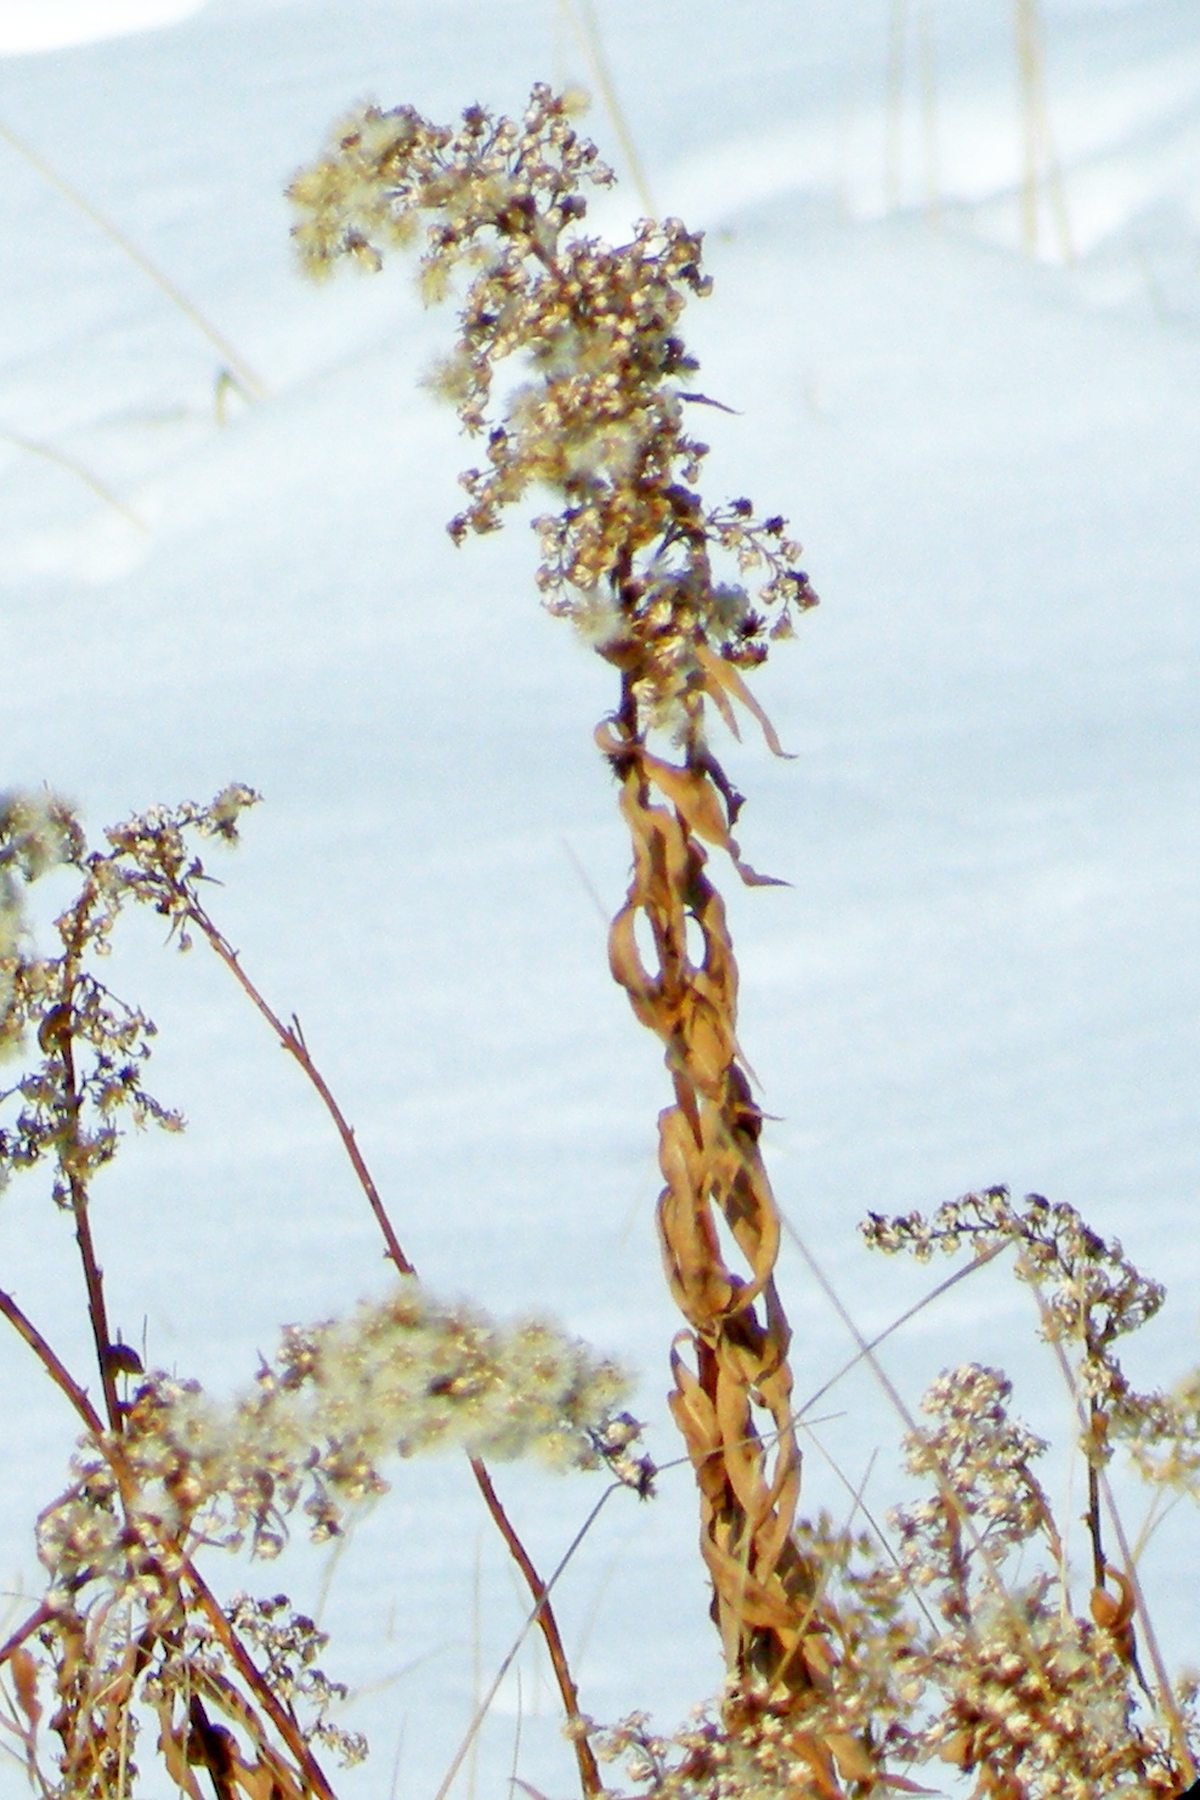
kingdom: Plantae
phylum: Tracheophyta
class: Magnoliopsida
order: Asterales
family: Asteraceae
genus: Solidago
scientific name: Solidago sempervirens
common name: Salt-marsh goldenrod
